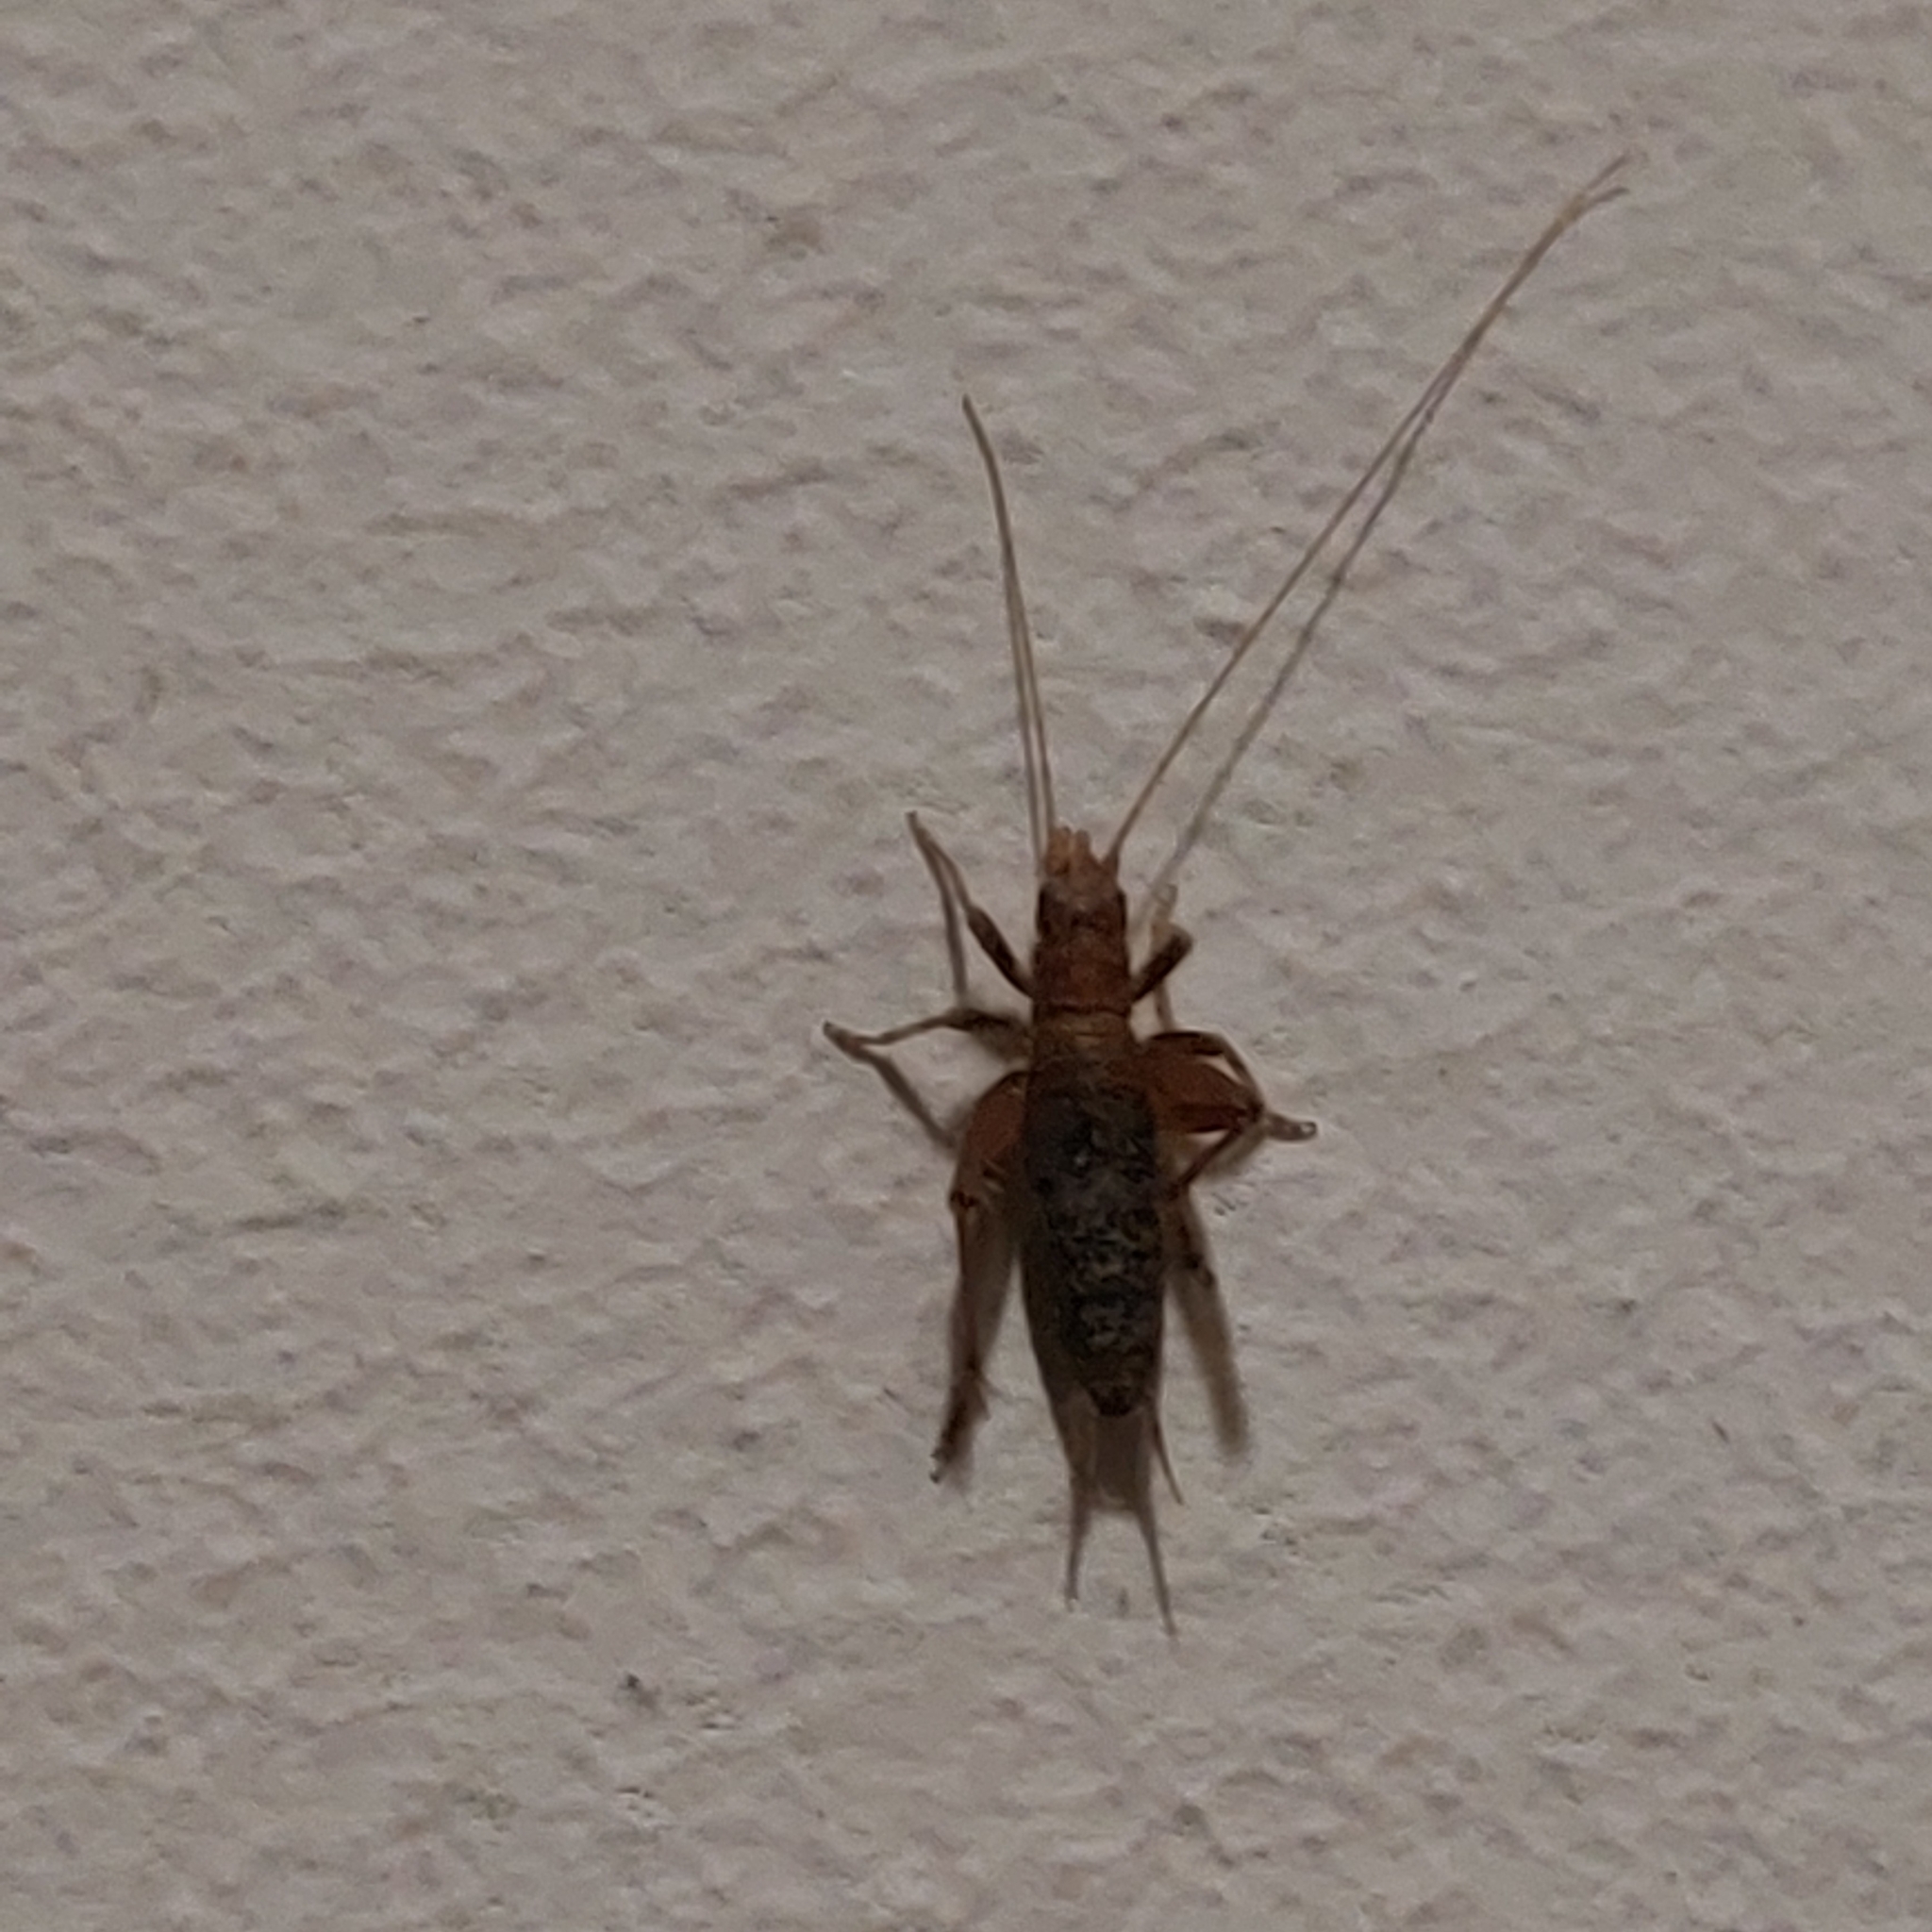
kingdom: Animalia
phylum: Arthropoda
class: Insecta
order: Orthoptera
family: Mogoplistidae
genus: Arachnocephalus
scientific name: Arachnocephalus vestitus
